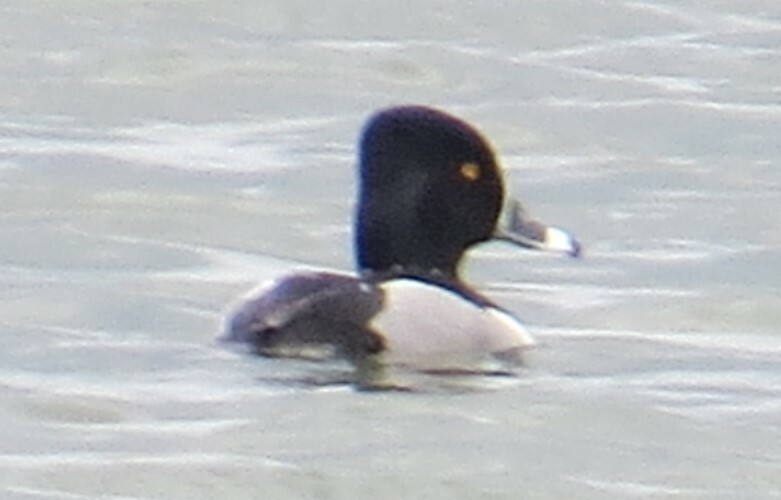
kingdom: Animalia
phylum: Chordata
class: Aves
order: Anseriformes
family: Anatidae
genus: Aythya
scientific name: Aythya collaris
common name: Ring-necked duck
